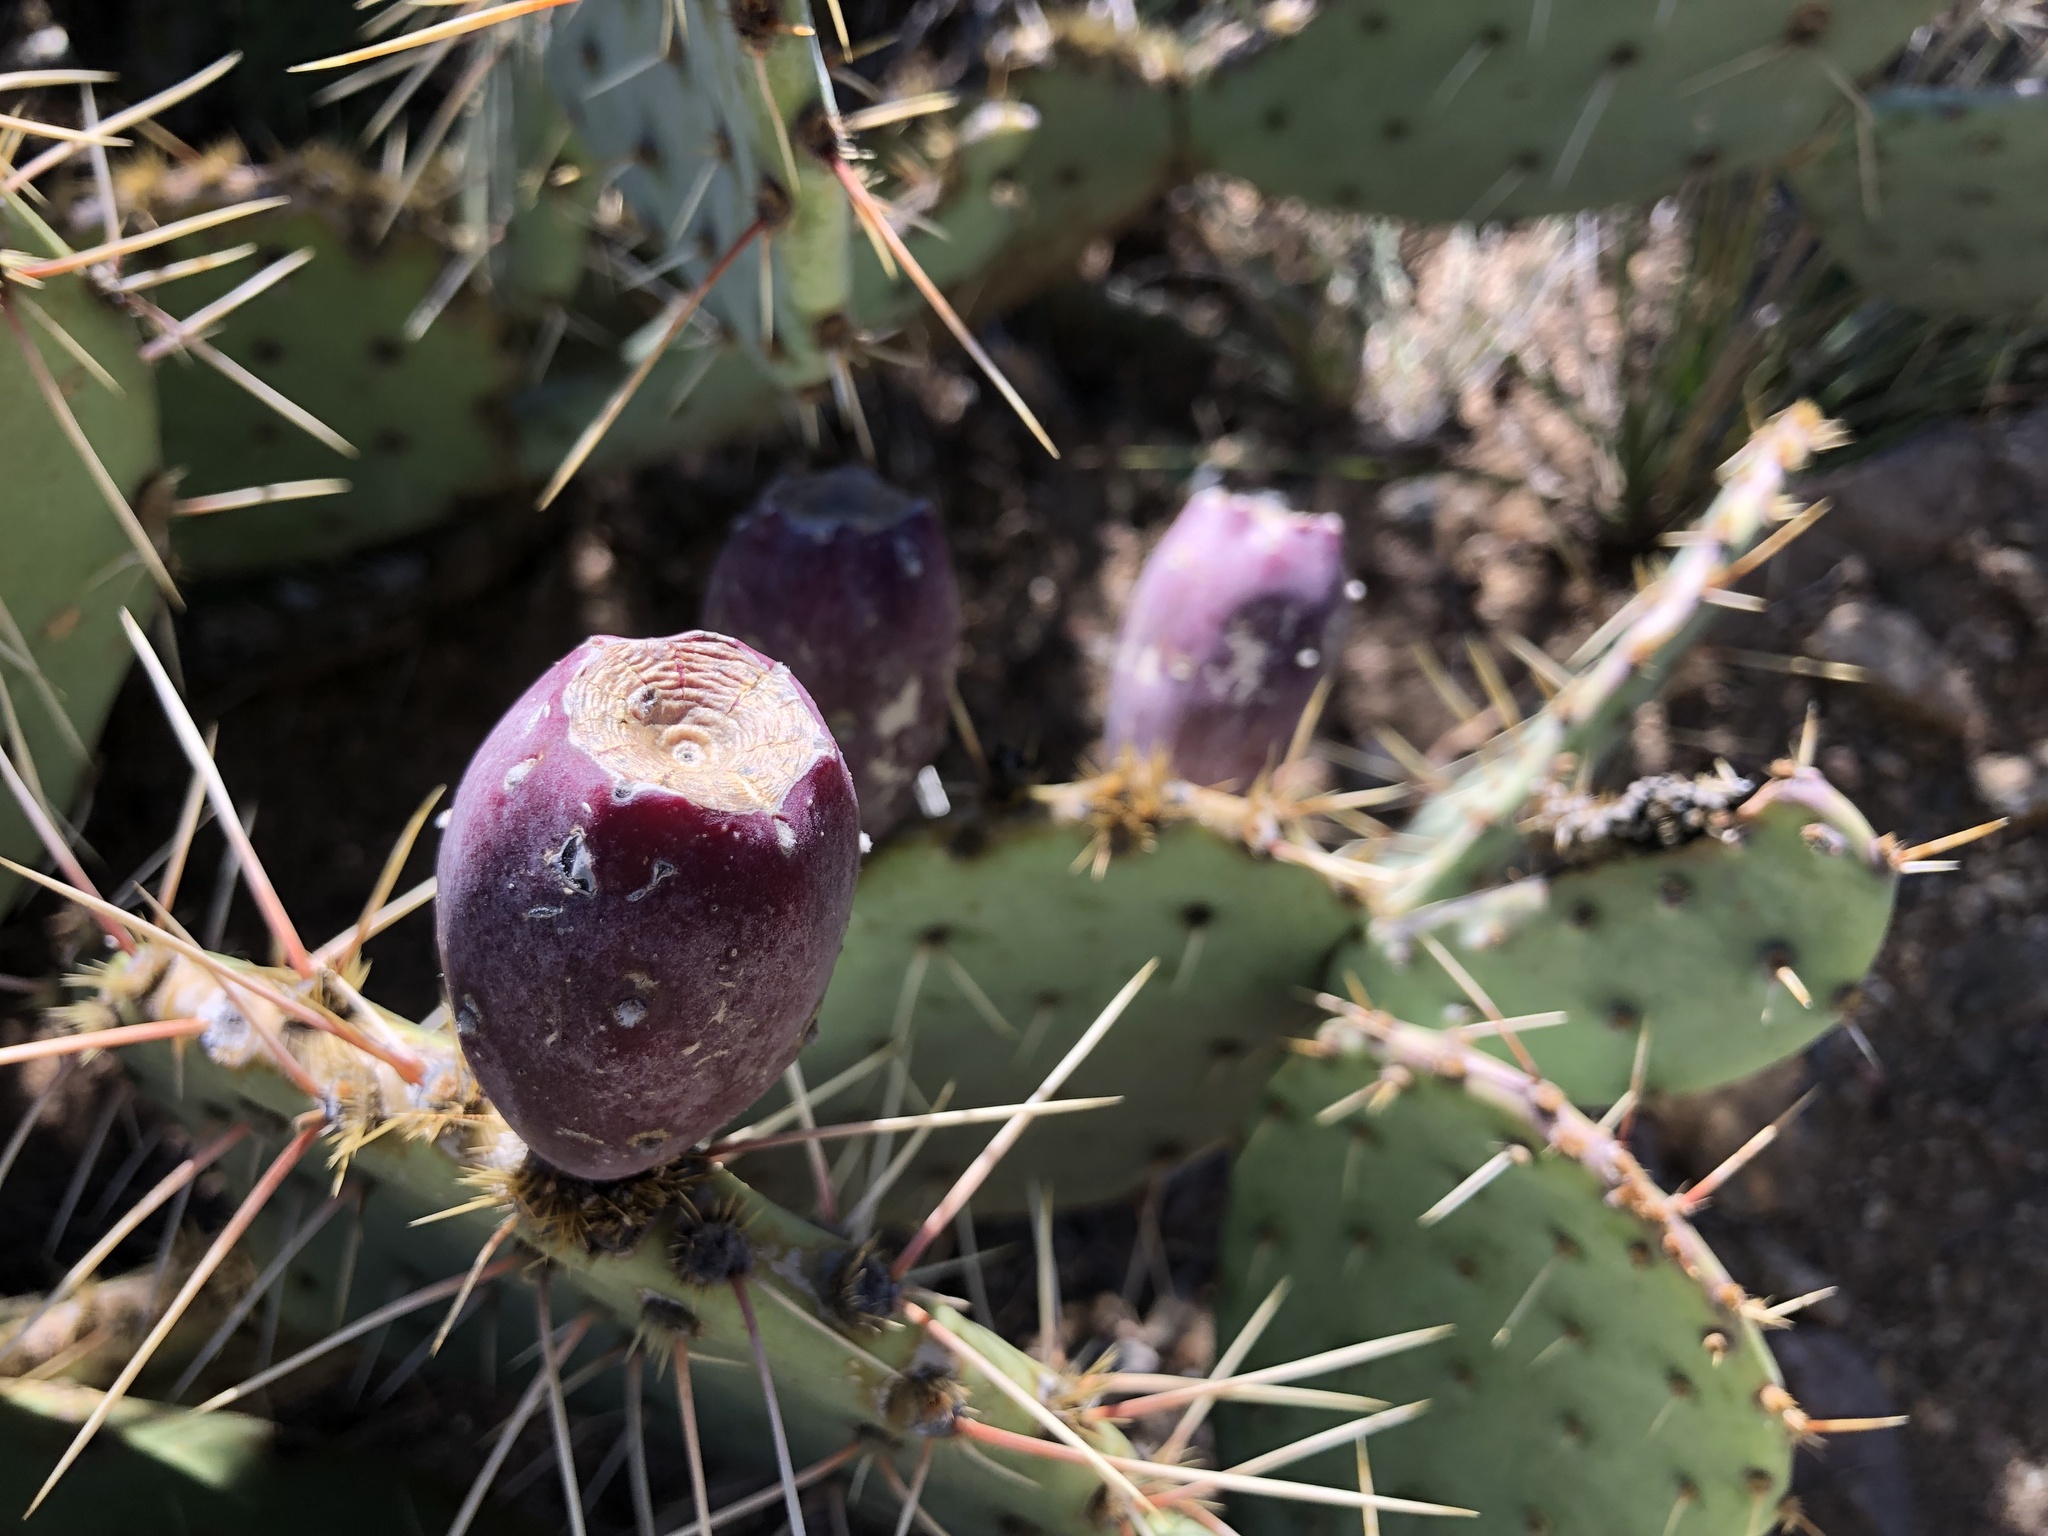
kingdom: Plantae
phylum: Tracheophyta
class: Magnoliopsida
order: Caryophyllales
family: Cactaceae
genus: Opuntia
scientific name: Opuntia phaeacantha
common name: New mexico prickly-pear
